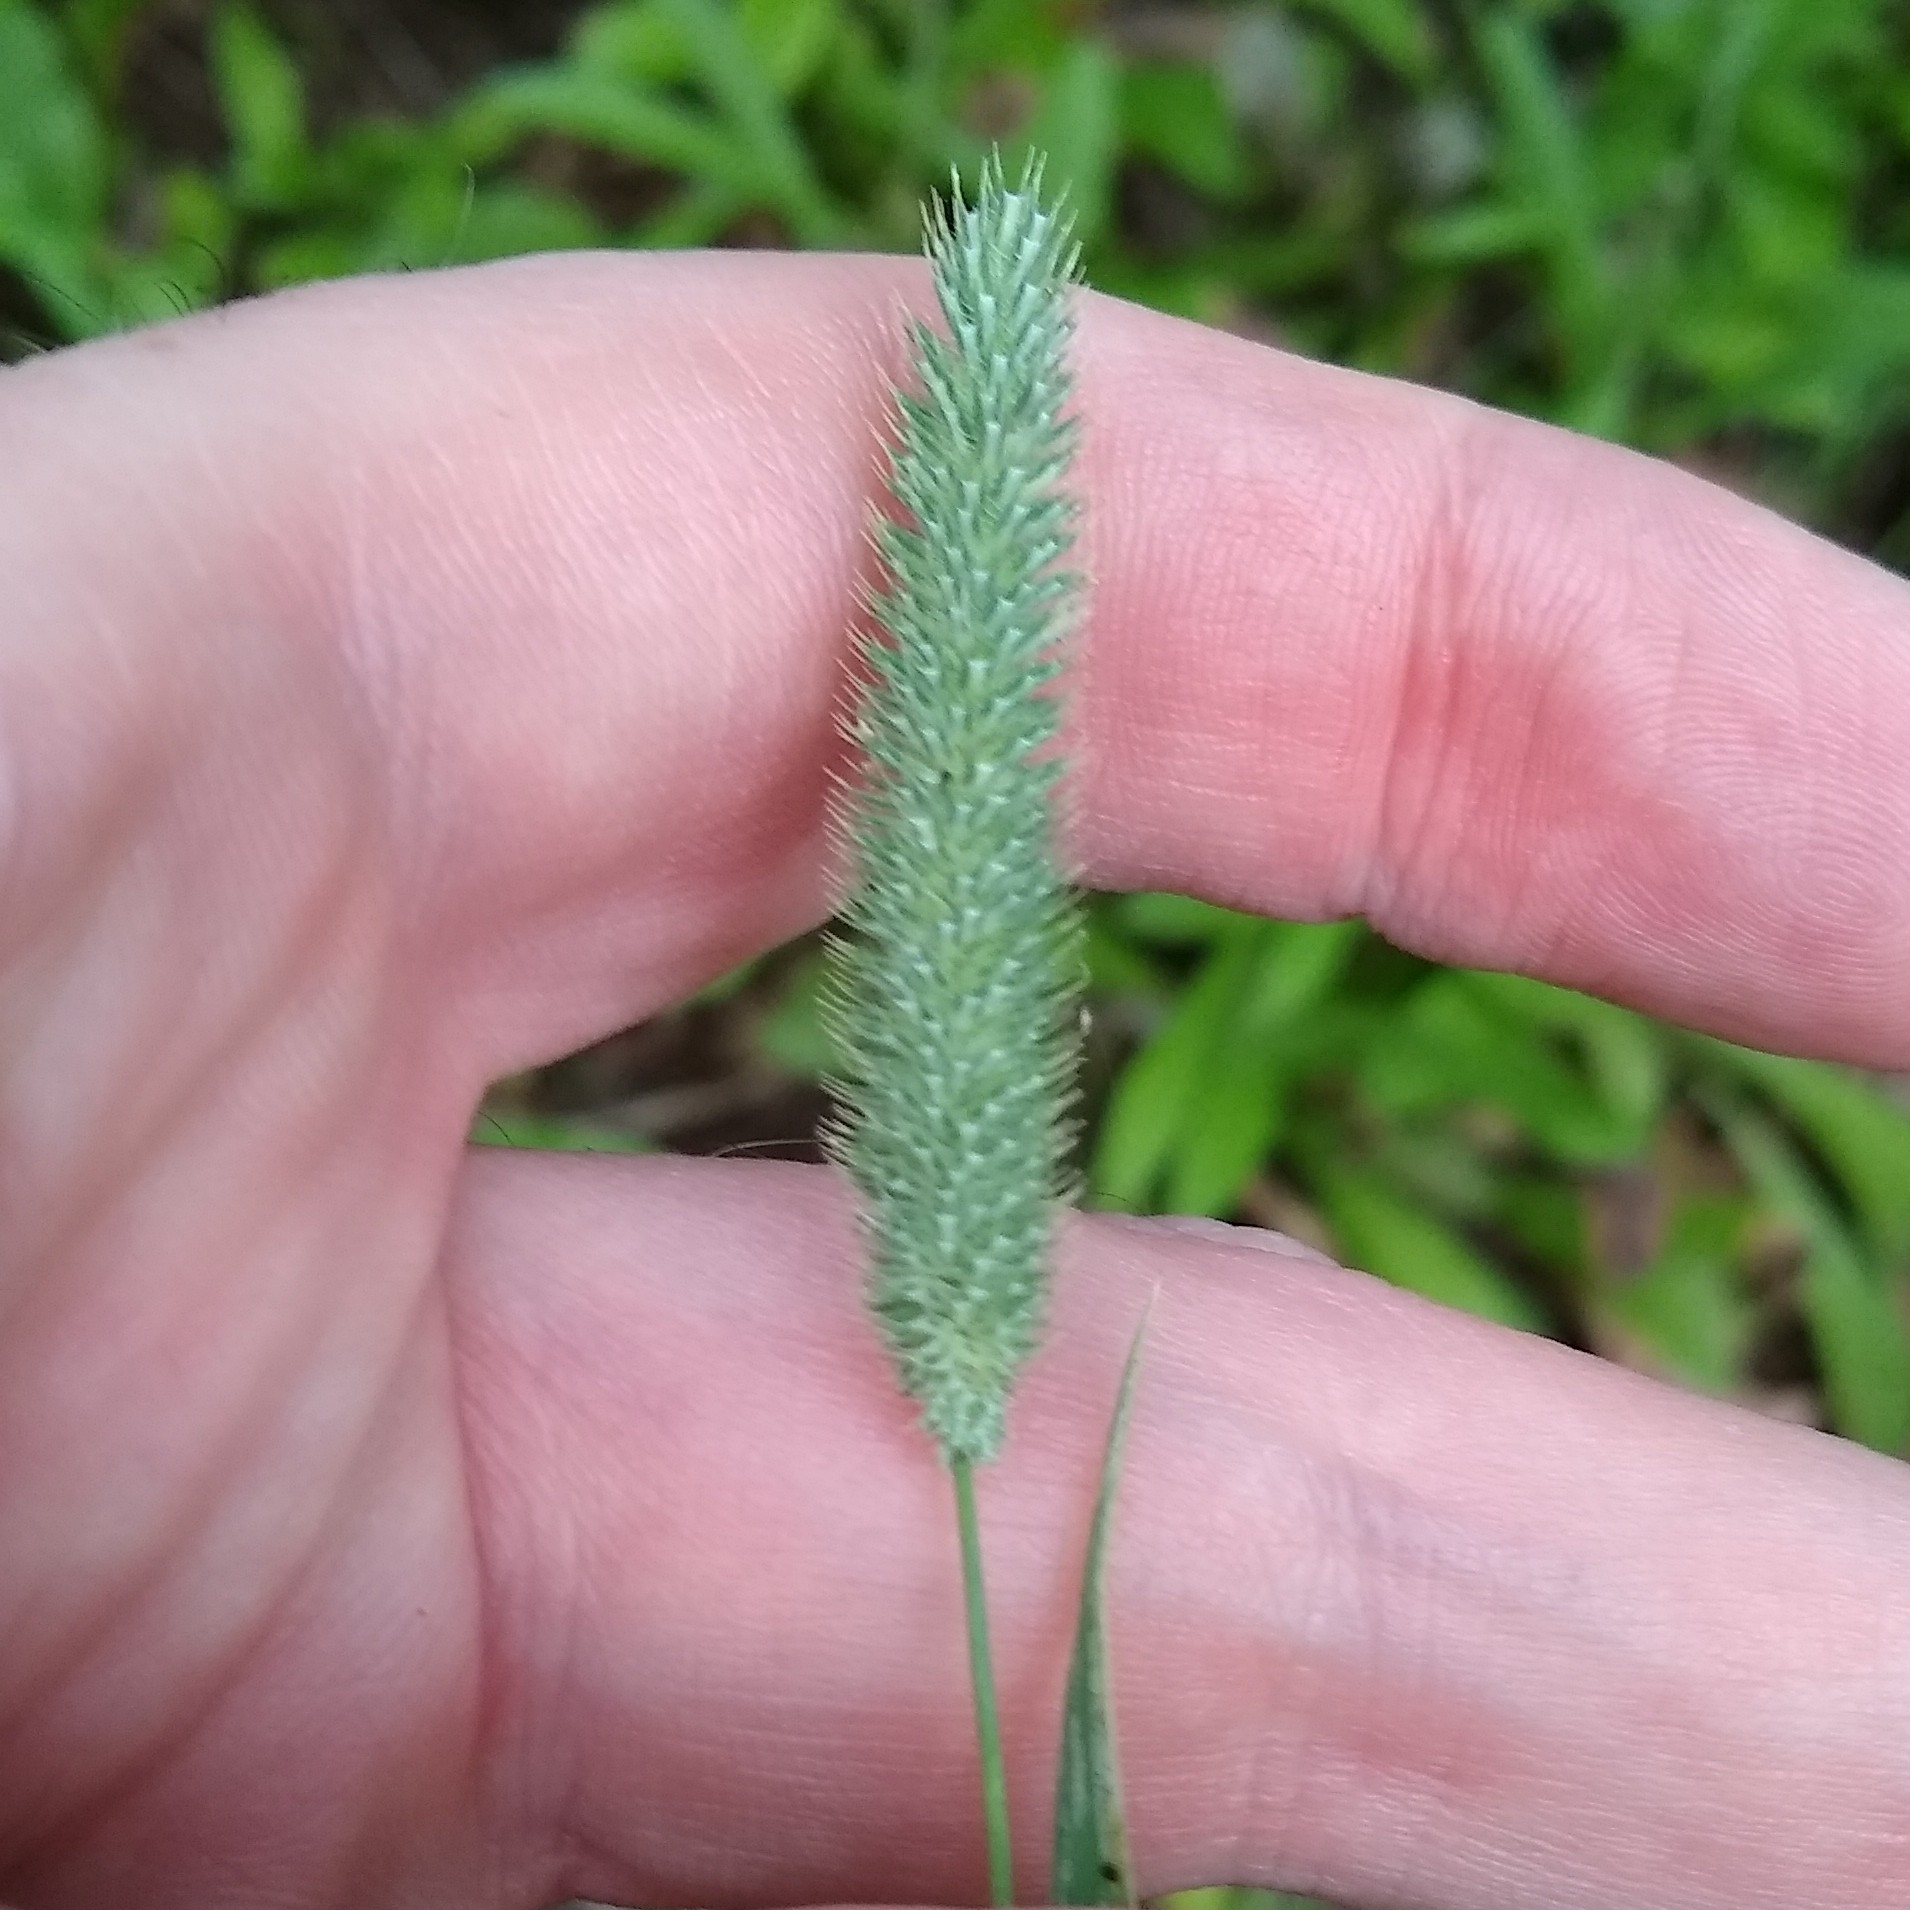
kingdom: Plantae
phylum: Tracheophyta
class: Liliopsida
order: Poales
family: Poaceae
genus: Phleum
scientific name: Phleum pratense
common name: Timothy grass
